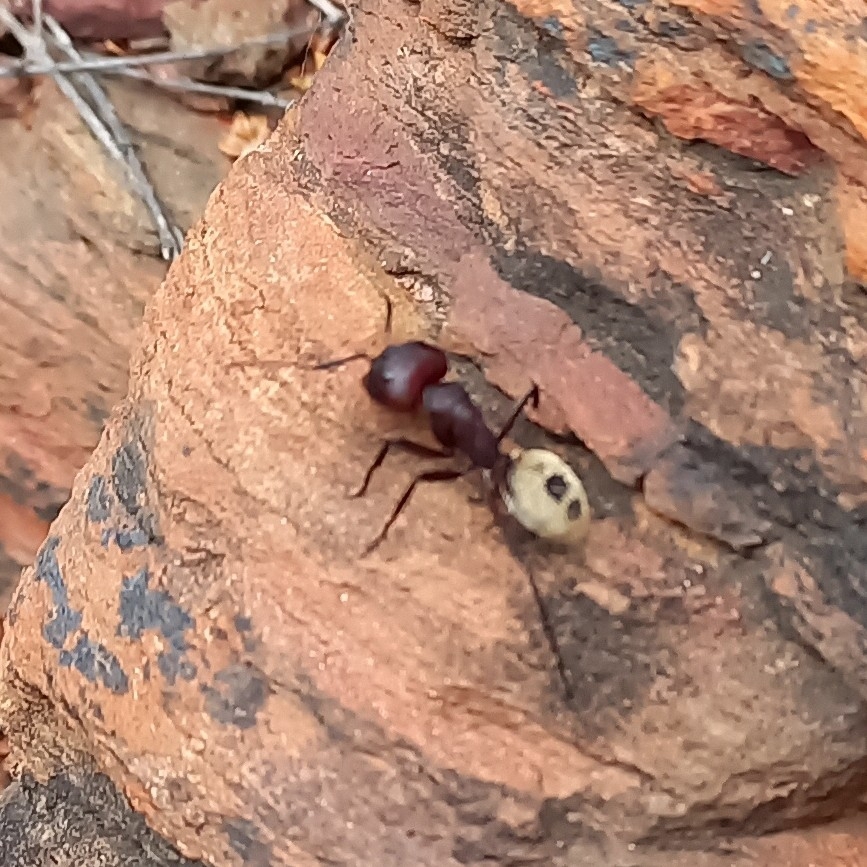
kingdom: Animalia
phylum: Arthropoda
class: Insecta
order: Hymenoptera
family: Formicidae
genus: Camponotus
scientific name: Camponotus fulvopilosus
